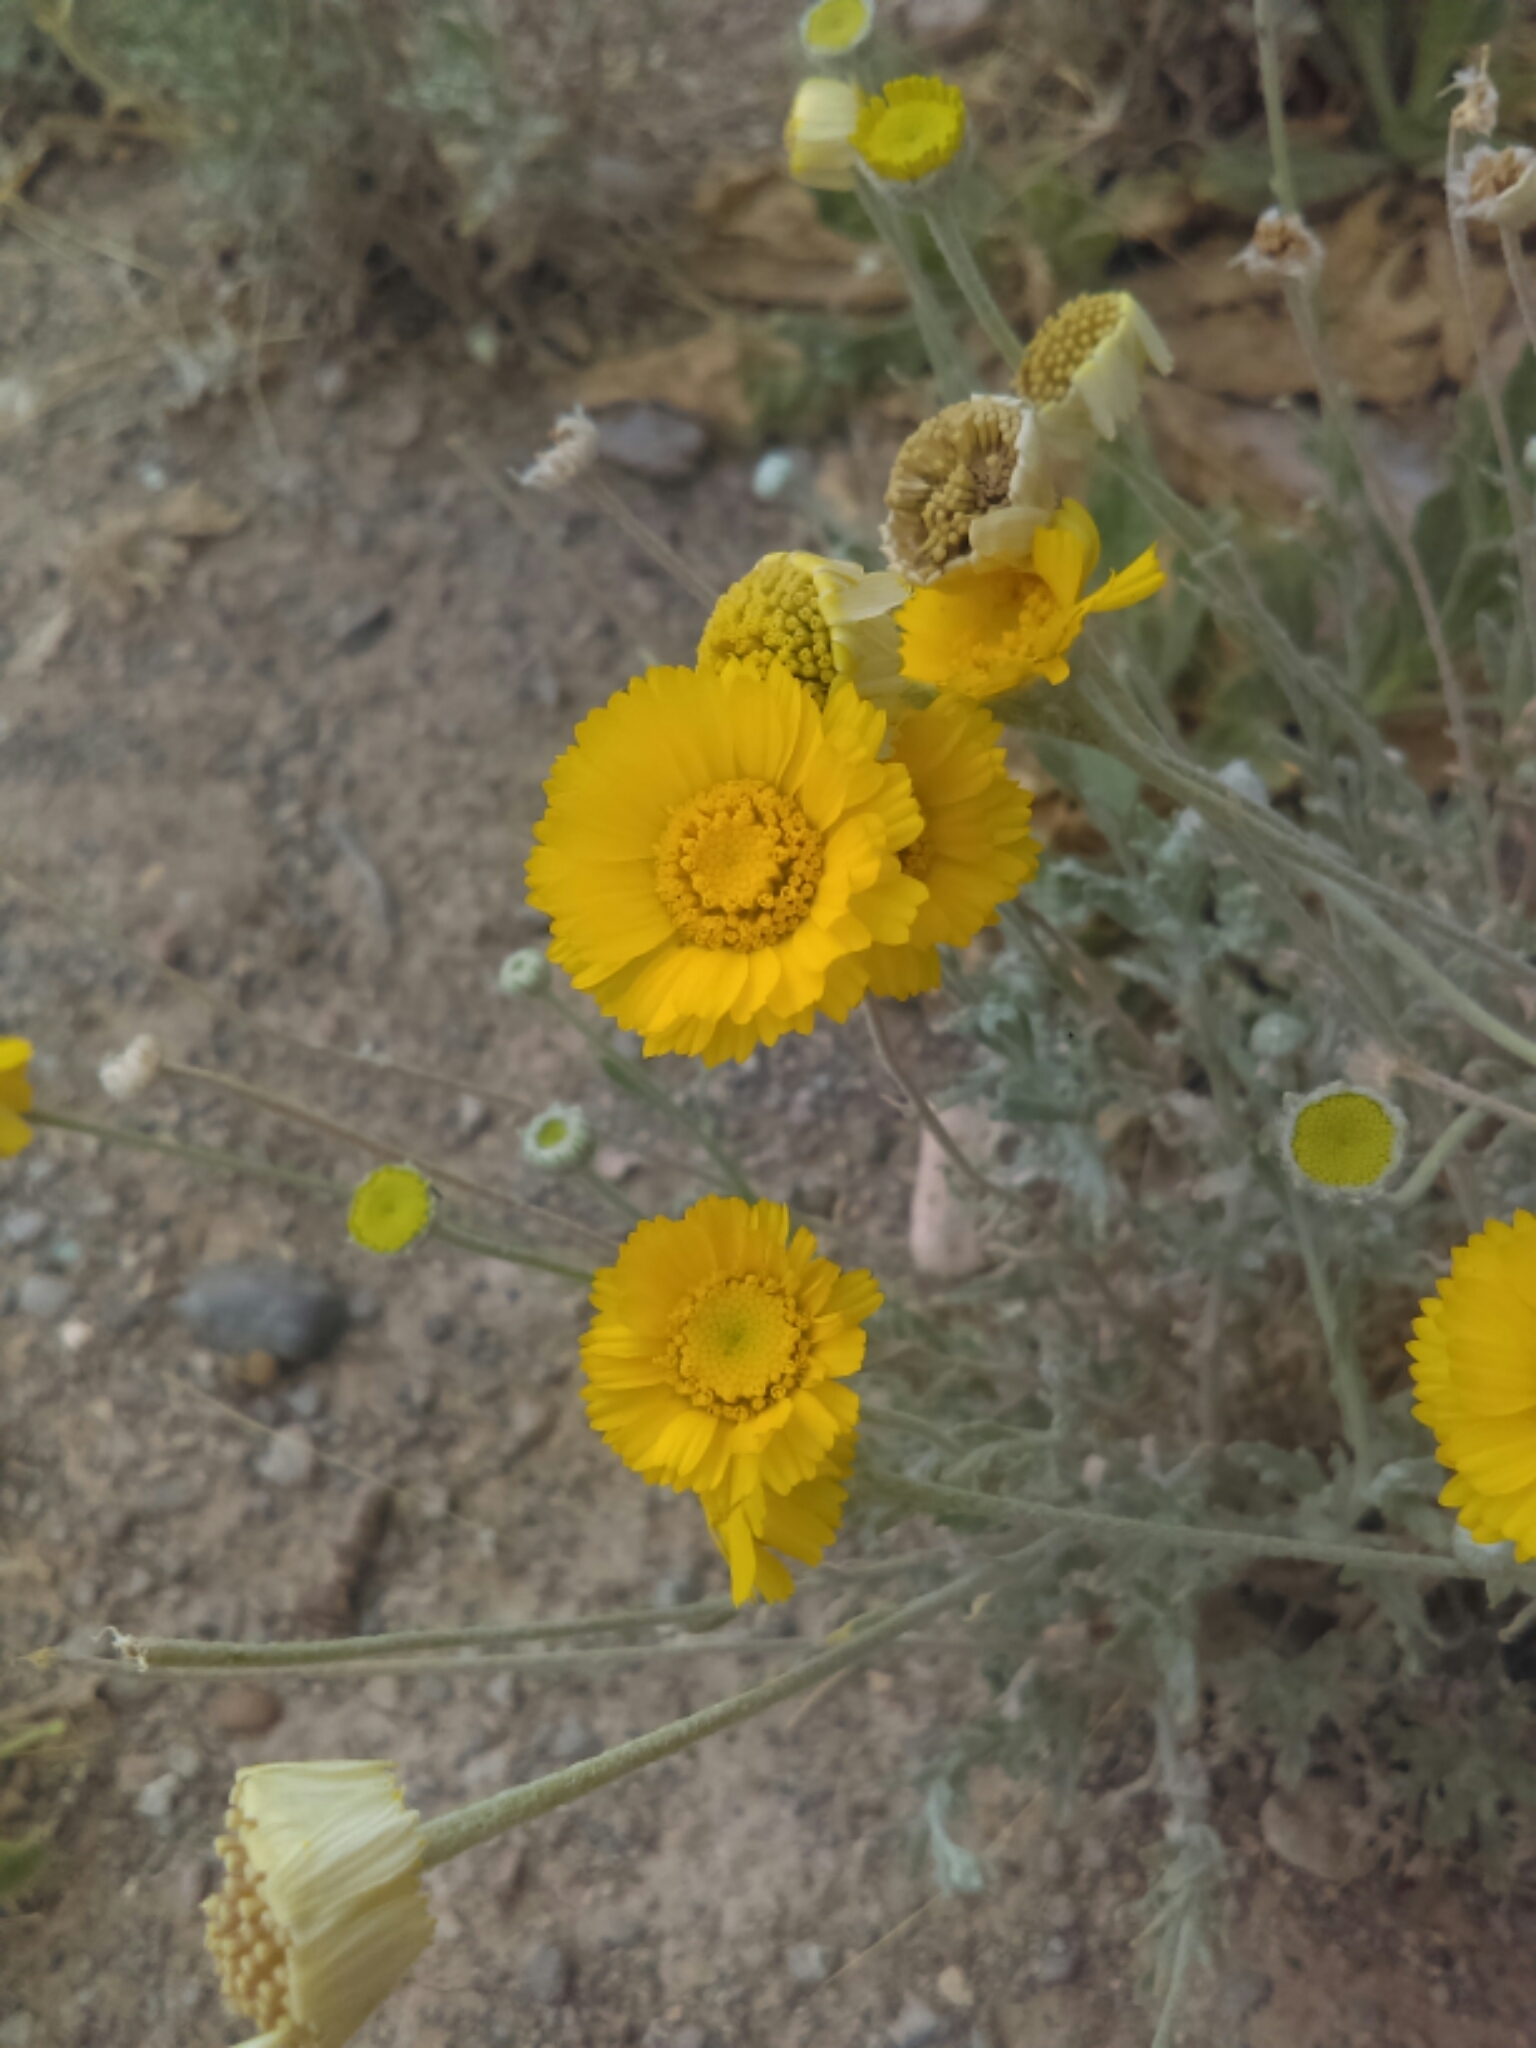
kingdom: Plantae
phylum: Tracheophyta
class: Magnoliopsida
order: Asterales
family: Asteraceae
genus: Baileya
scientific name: Baileya multiradiata
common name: Desert-marigold
